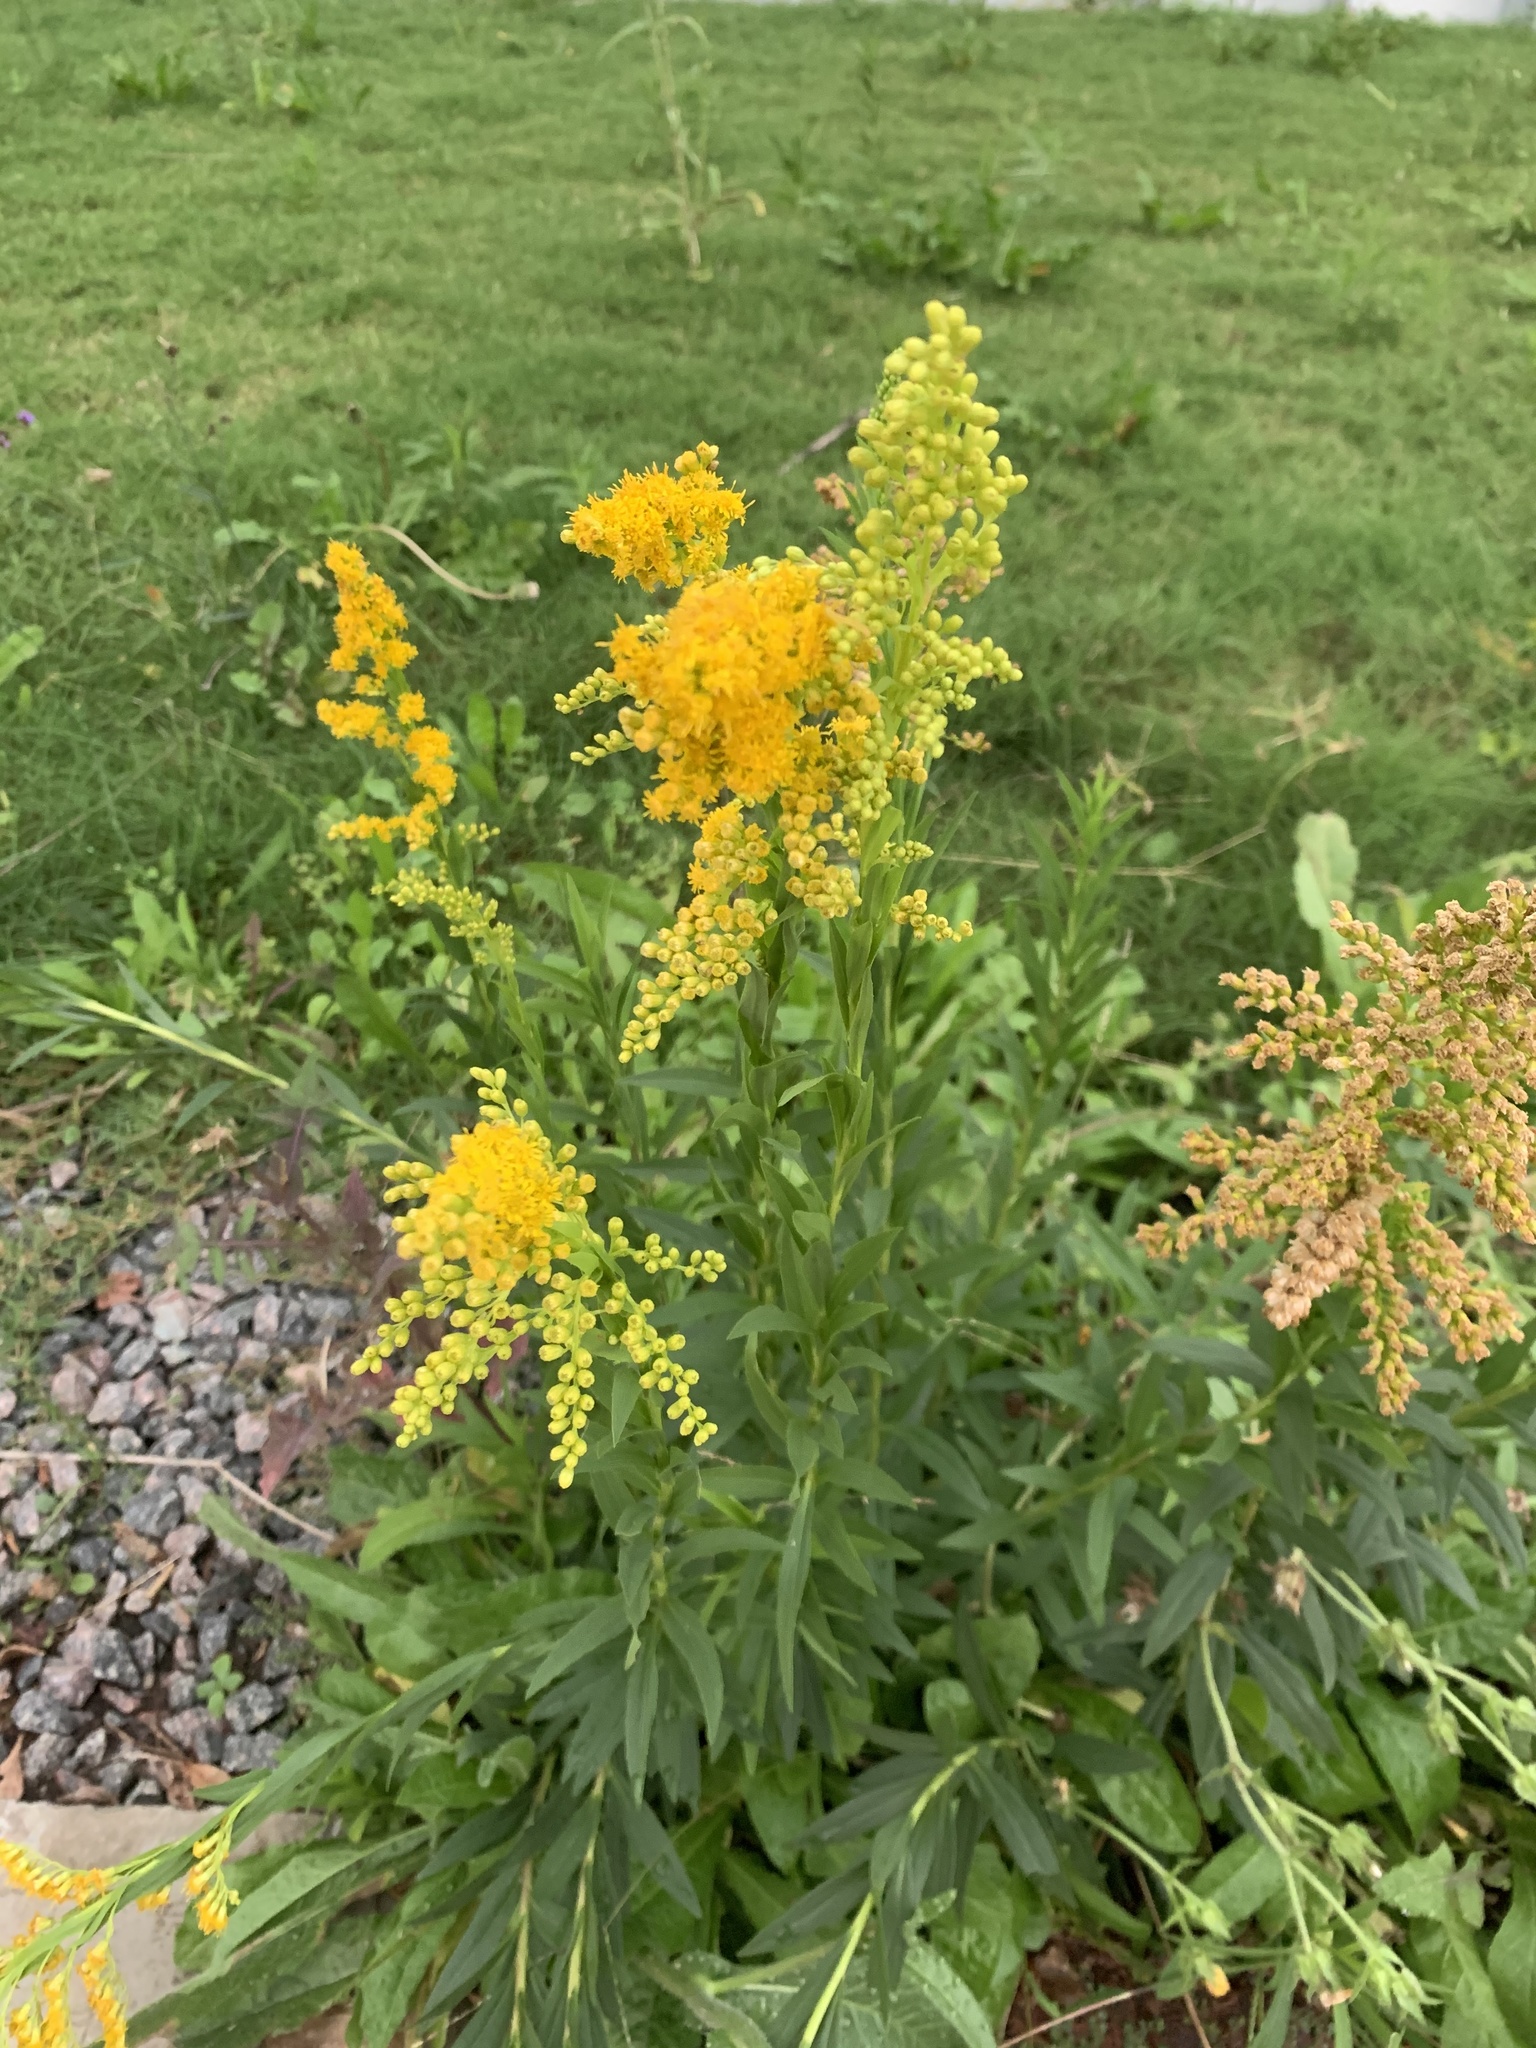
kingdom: Plantae
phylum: Tracheophyta
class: Magnoliopsida
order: Asterales
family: Asteraceae
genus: Solidago
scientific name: Solidago chilensis
